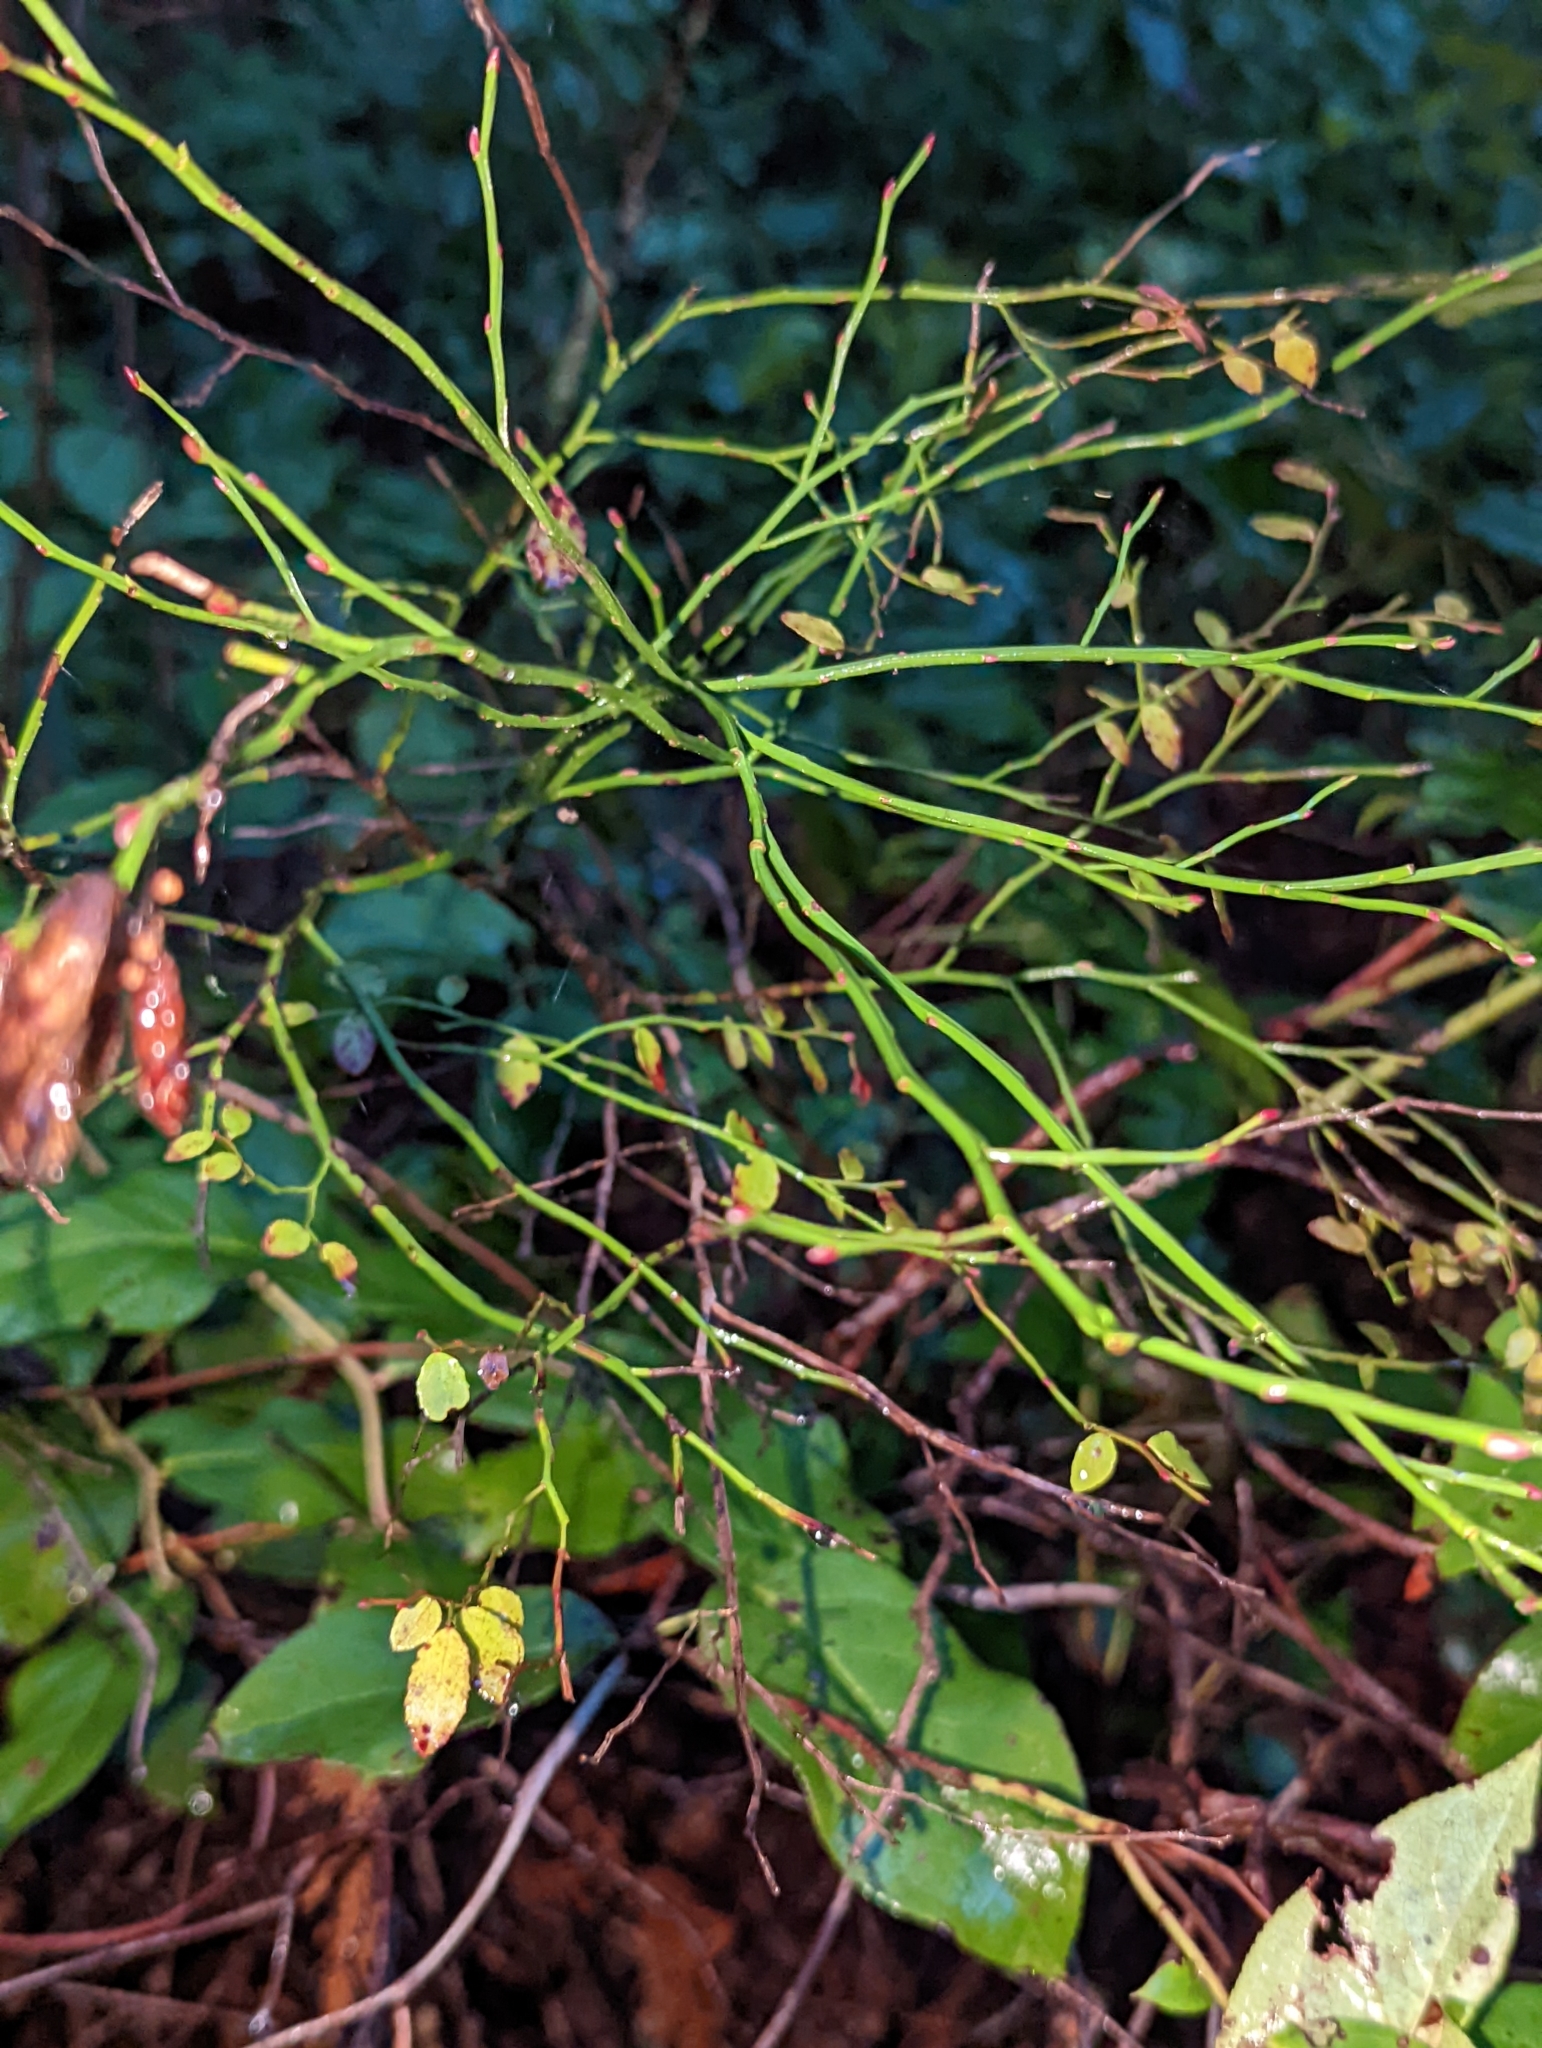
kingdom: Plantae
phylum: Tracheophyta
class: Magnoliopsida
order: Ericales
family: Ericaceae
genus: Vaccinium
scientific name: Vaccinium parvifolium
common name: Red-huckleberry
